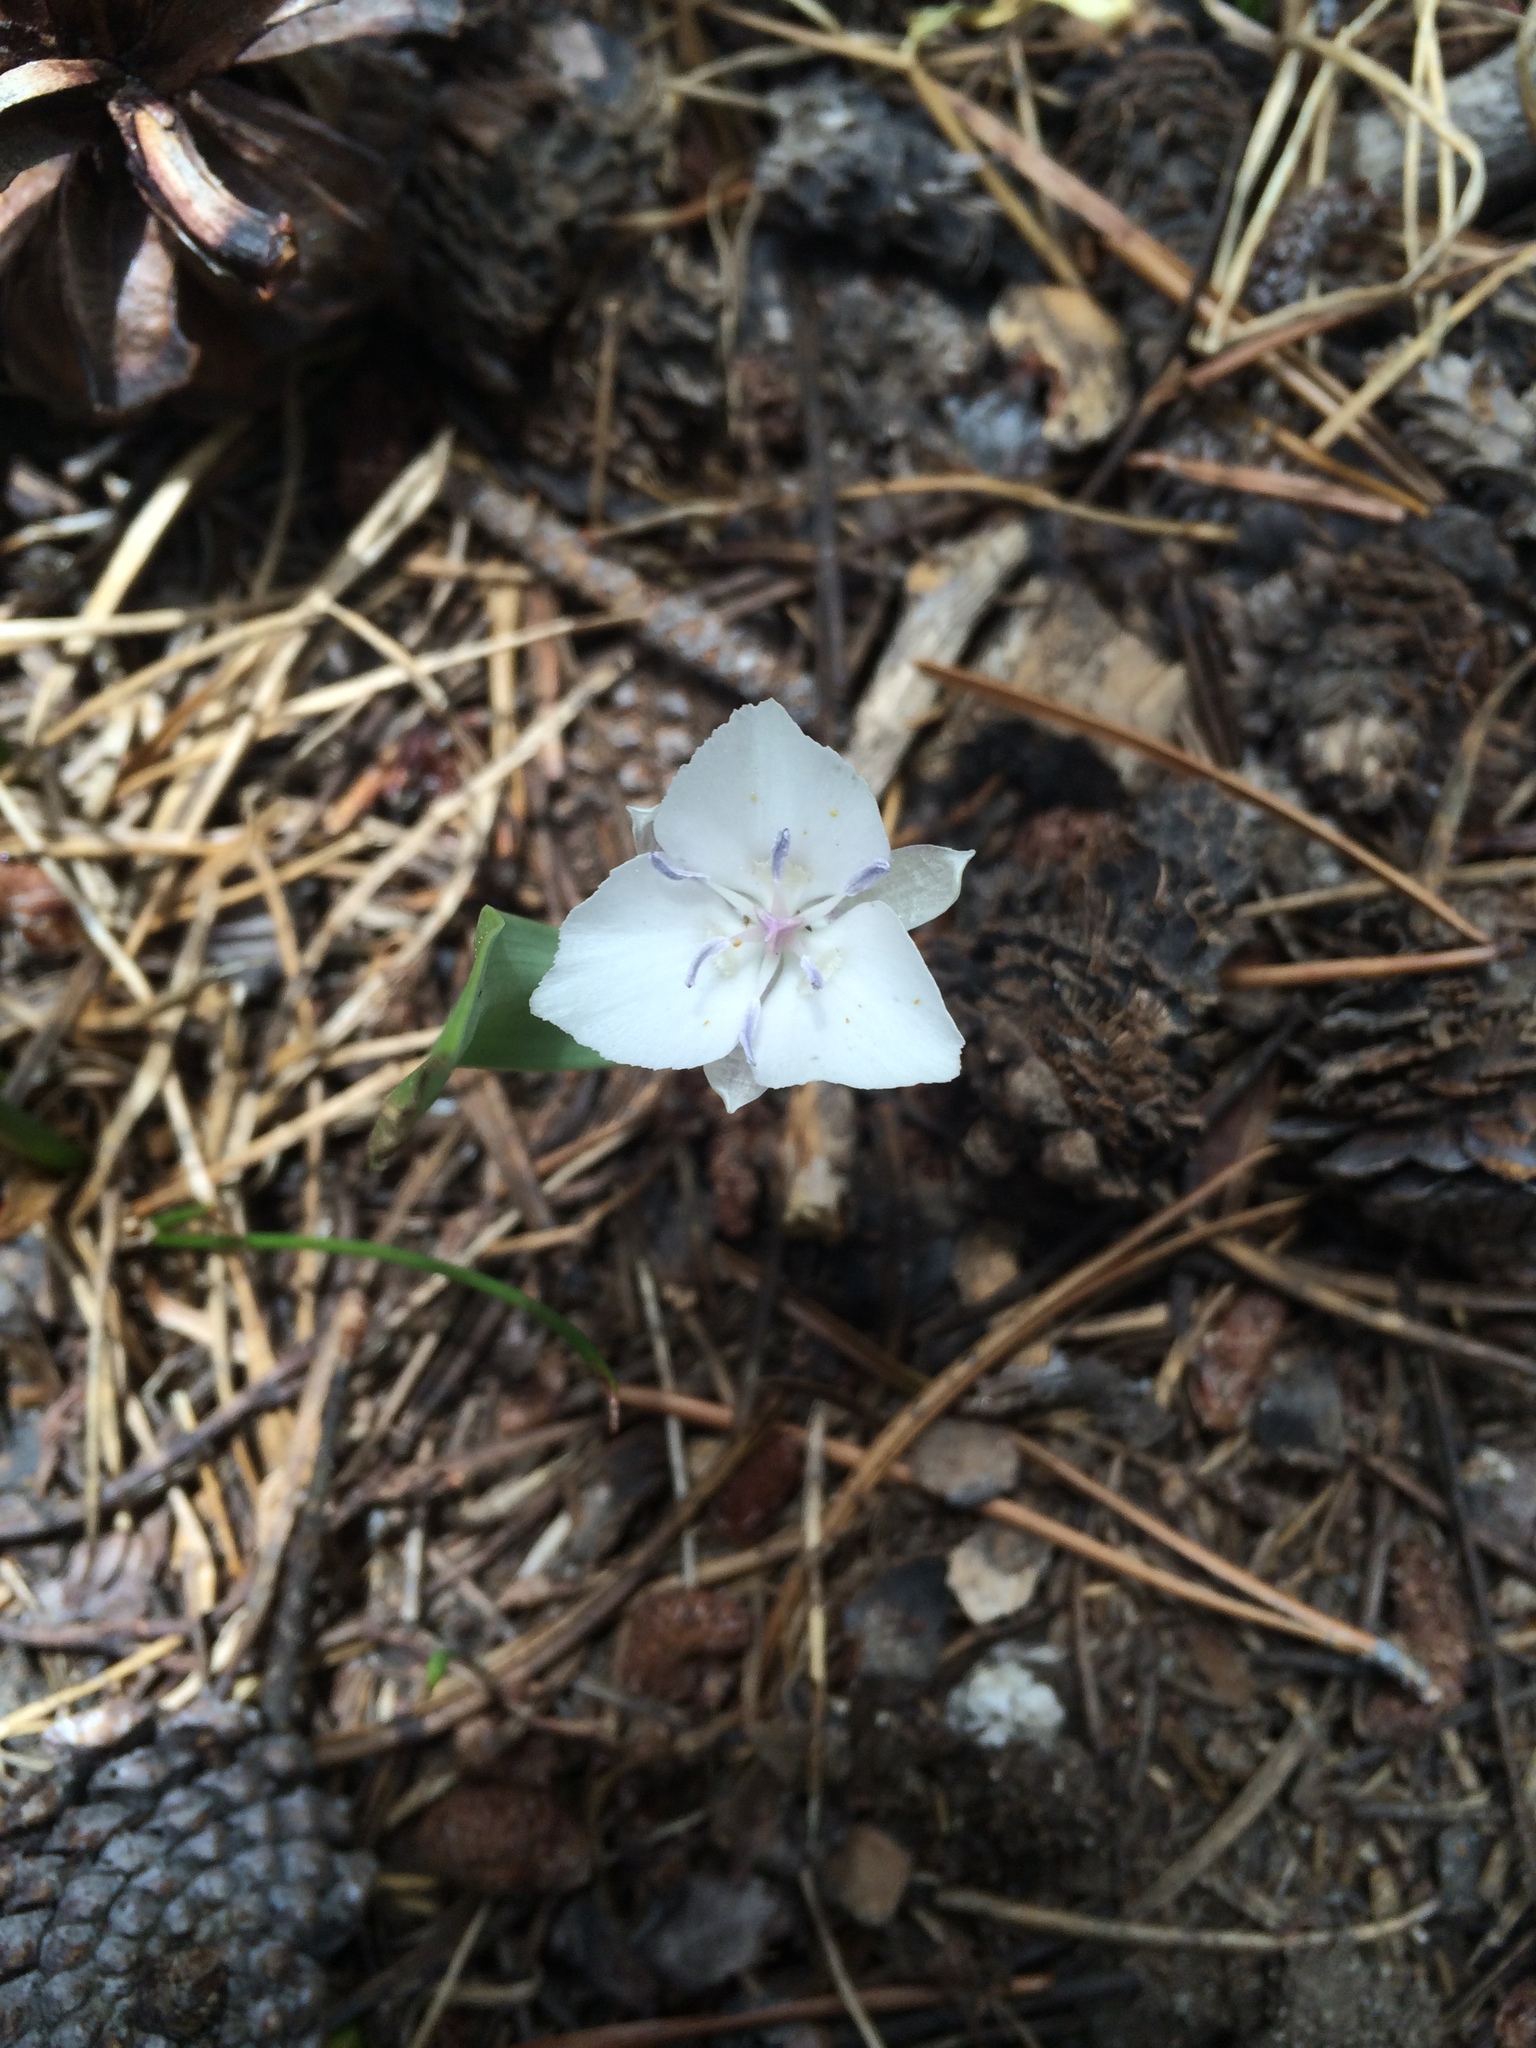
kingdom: Plantae
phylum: Tracheophyta
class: Liliopsida
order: Liliales
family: Liliaceae
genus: Calochortus
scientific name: Calochortus minimus
